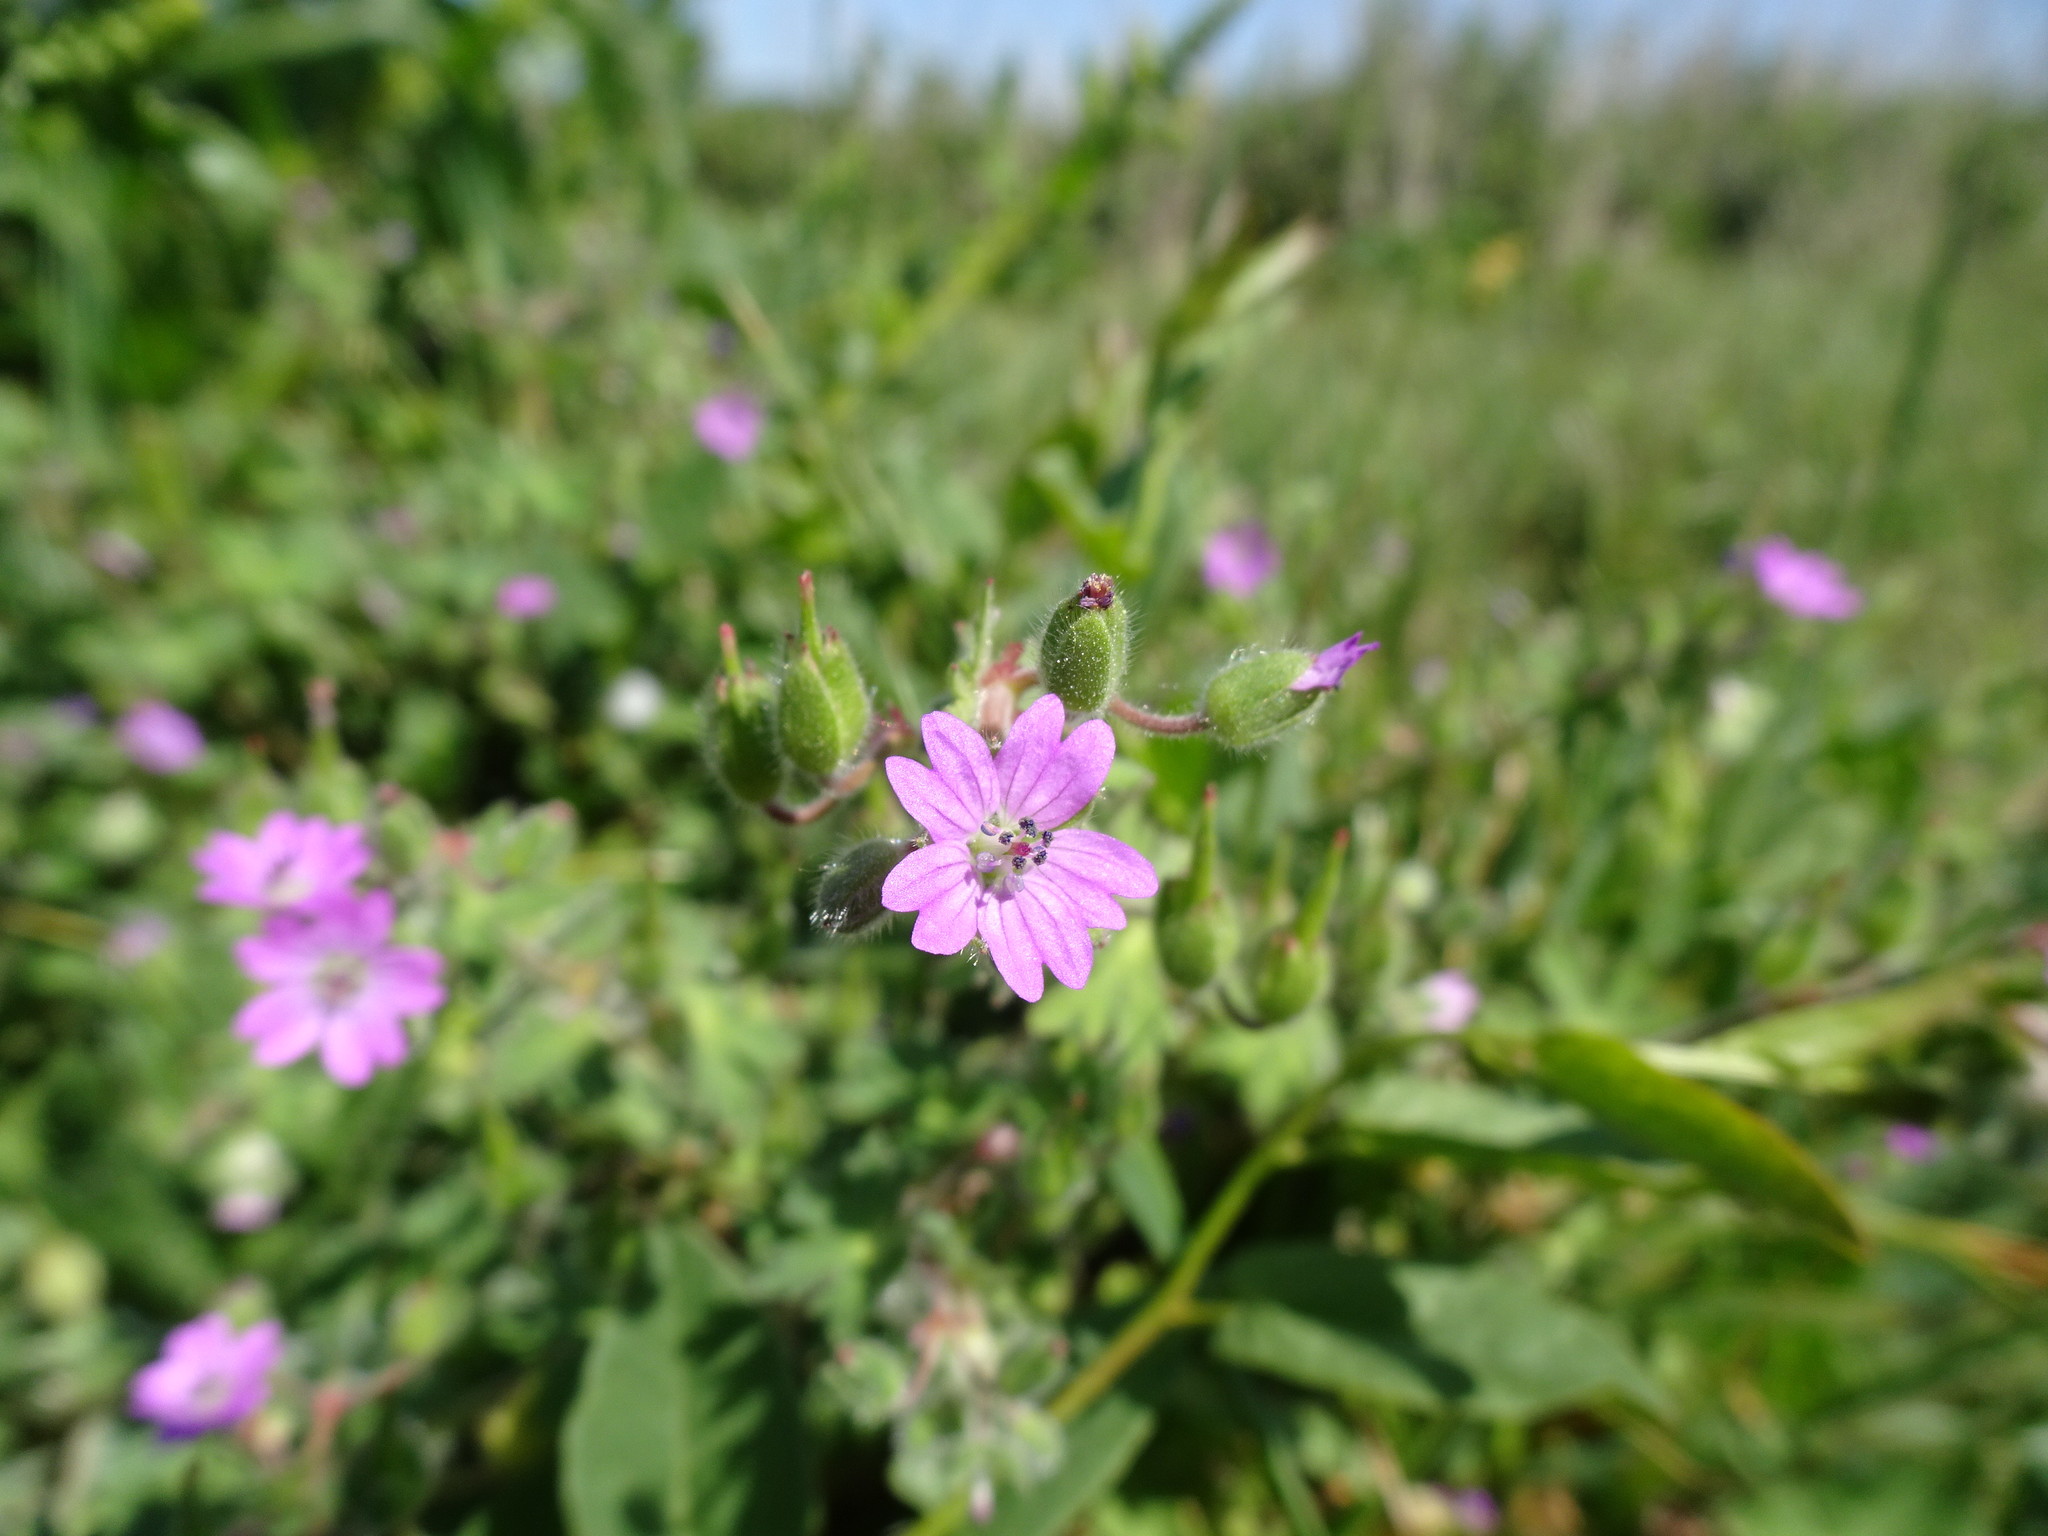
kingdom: Plantae
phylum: Tracheophyta
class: Magnoliopsida
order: Geraniales
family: Geraniaceae
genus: Geranium
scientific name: Geranium molle
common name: Dove's-foot crane's-bill
